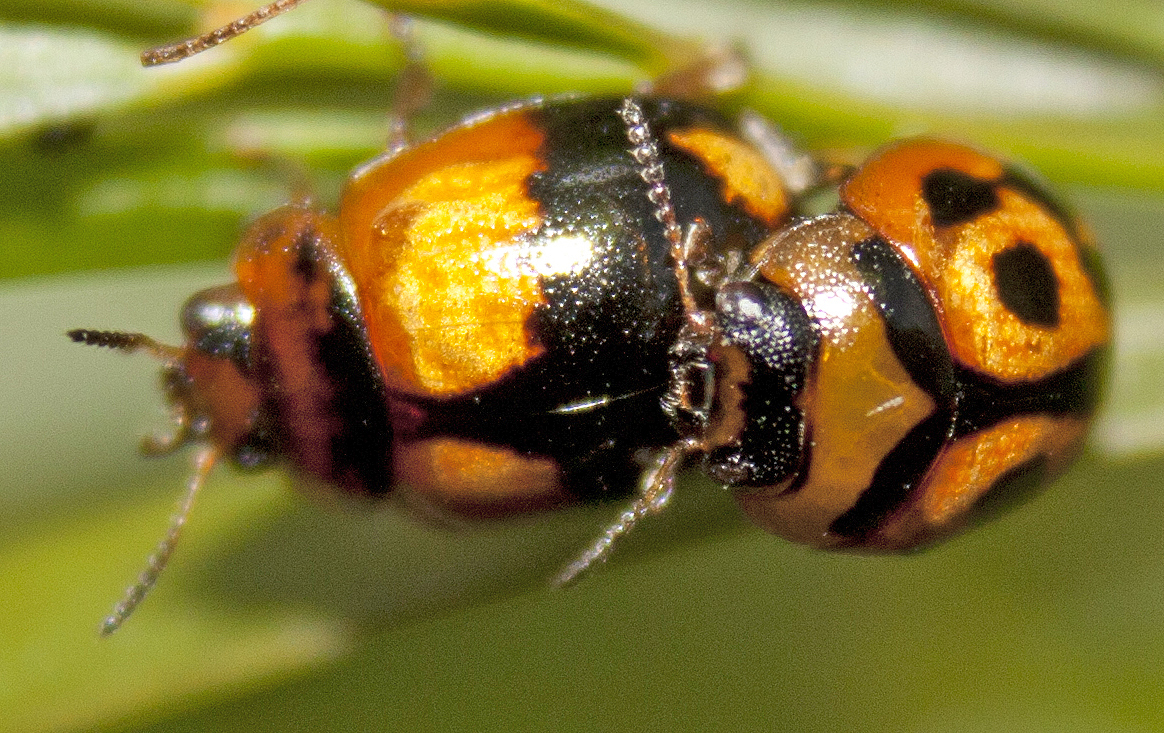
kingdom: Animalia
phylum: Arthropoda
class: Insecta
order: Coleoptera
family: Chrysomelidae
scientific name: Chrysomelidae
